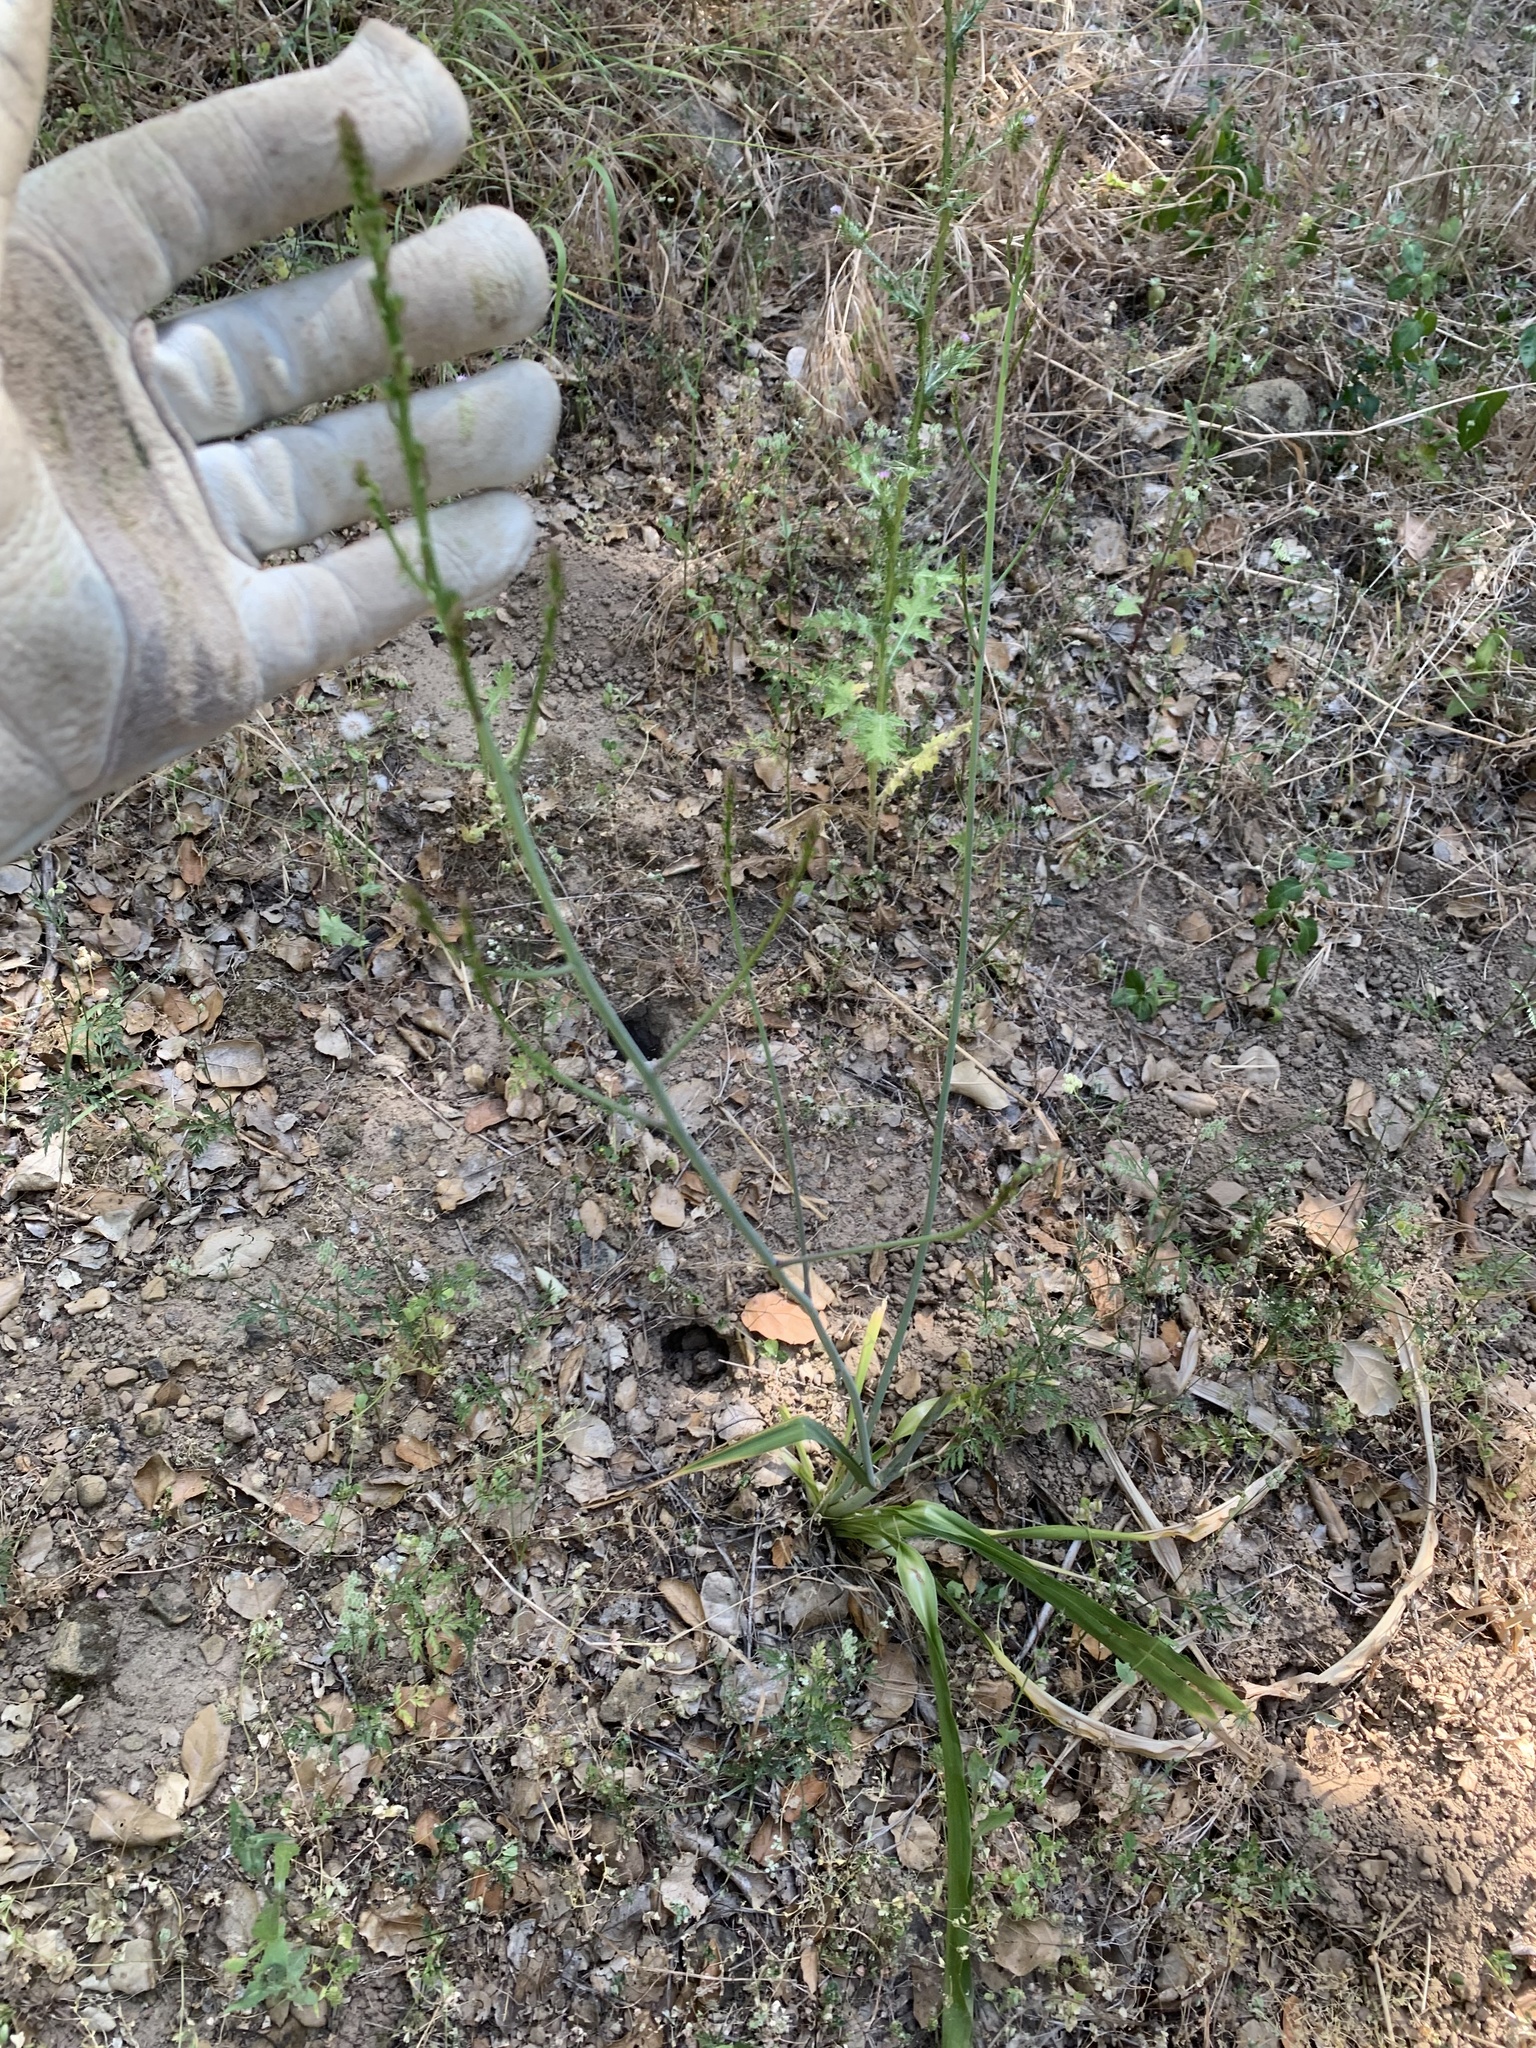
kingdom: Plantae
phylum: Tracheophyta
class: Liliopsida
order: Asparagales
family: Asparagaceae
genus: Chlorogalum
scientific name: Chlorogalum pomeridianum
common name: Amole
